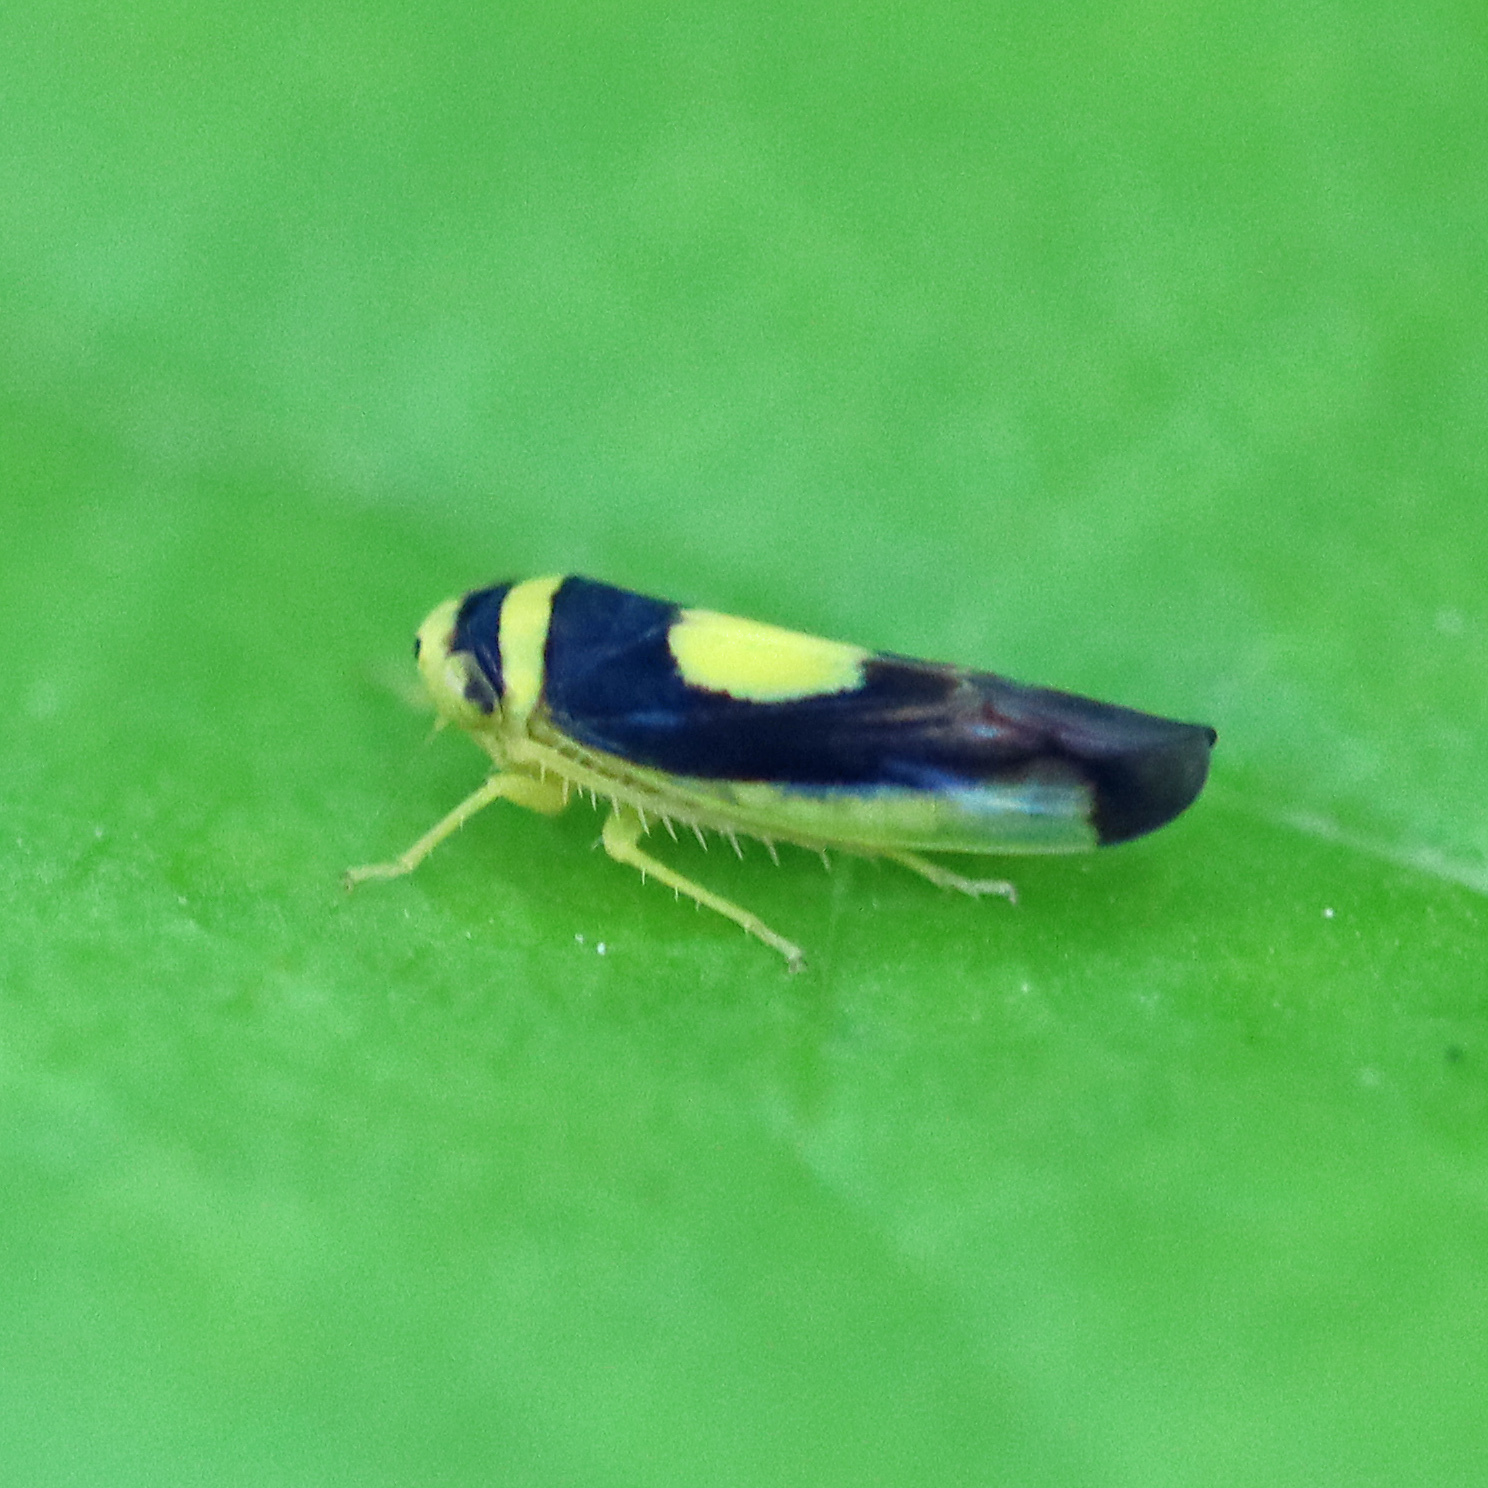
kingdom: Animalia
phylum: Arthropoda
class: Insecta
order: Hemiptera
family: Cicadellidae
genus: Colladonus
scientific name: Colladonus clitellarius
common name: The saddleback leafhopper
